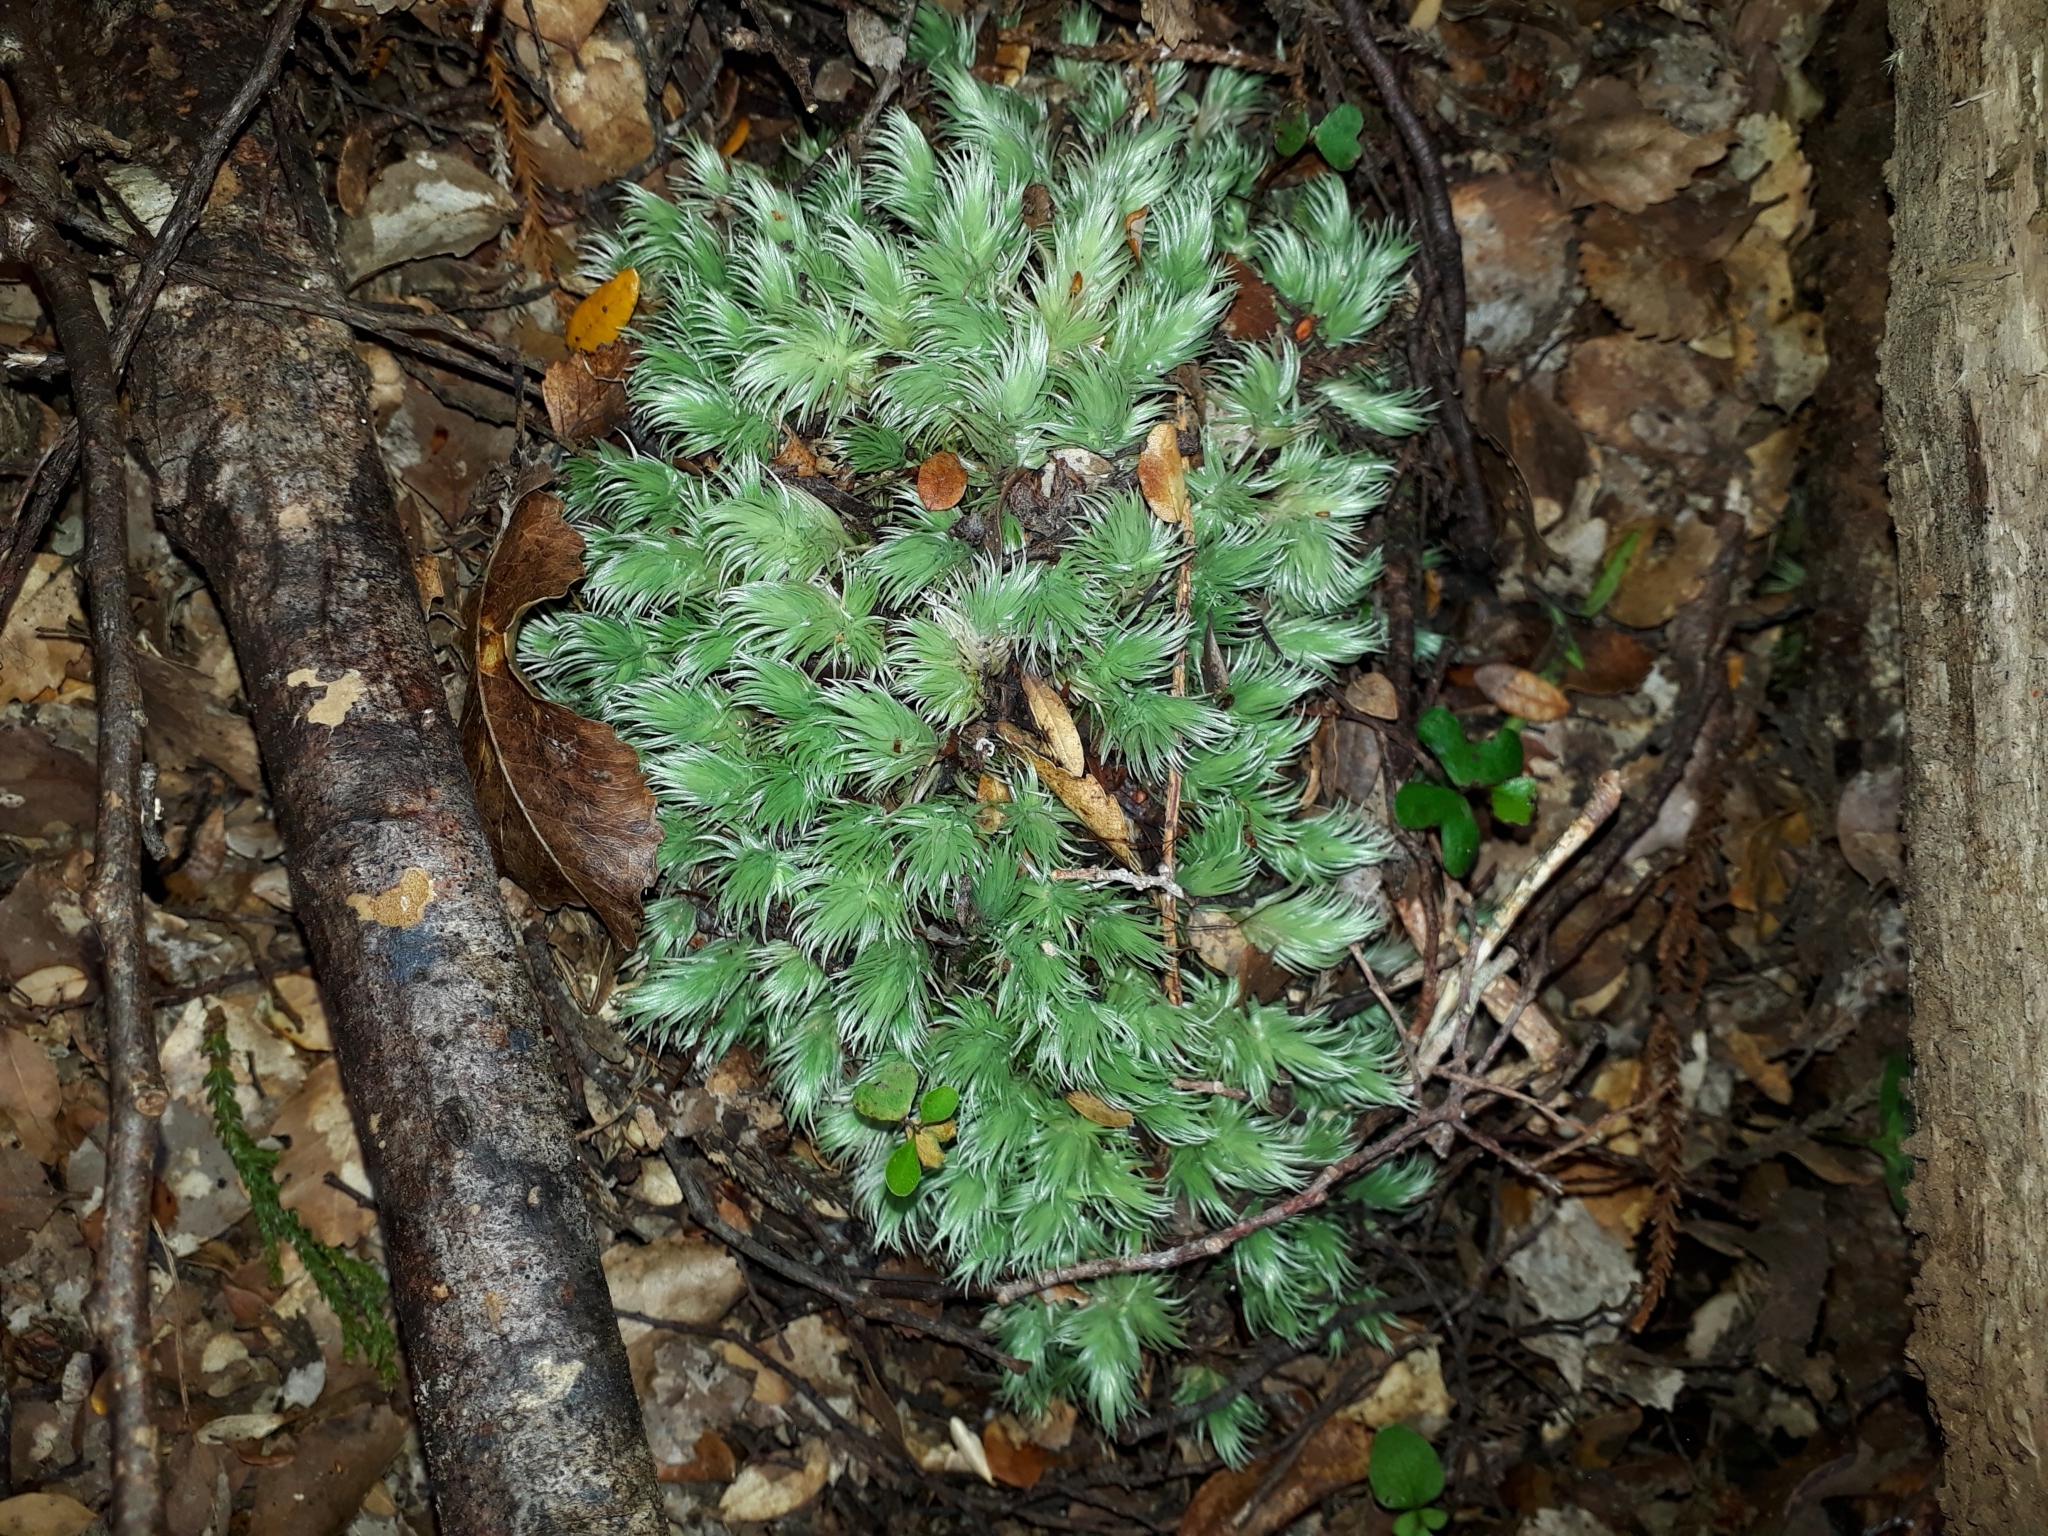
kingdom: Plantae
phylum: Bryophyta
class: Bryopsida
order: Dicranales
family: Leucobryaceae
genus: Leucobryum
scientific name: Leucobryum javense
